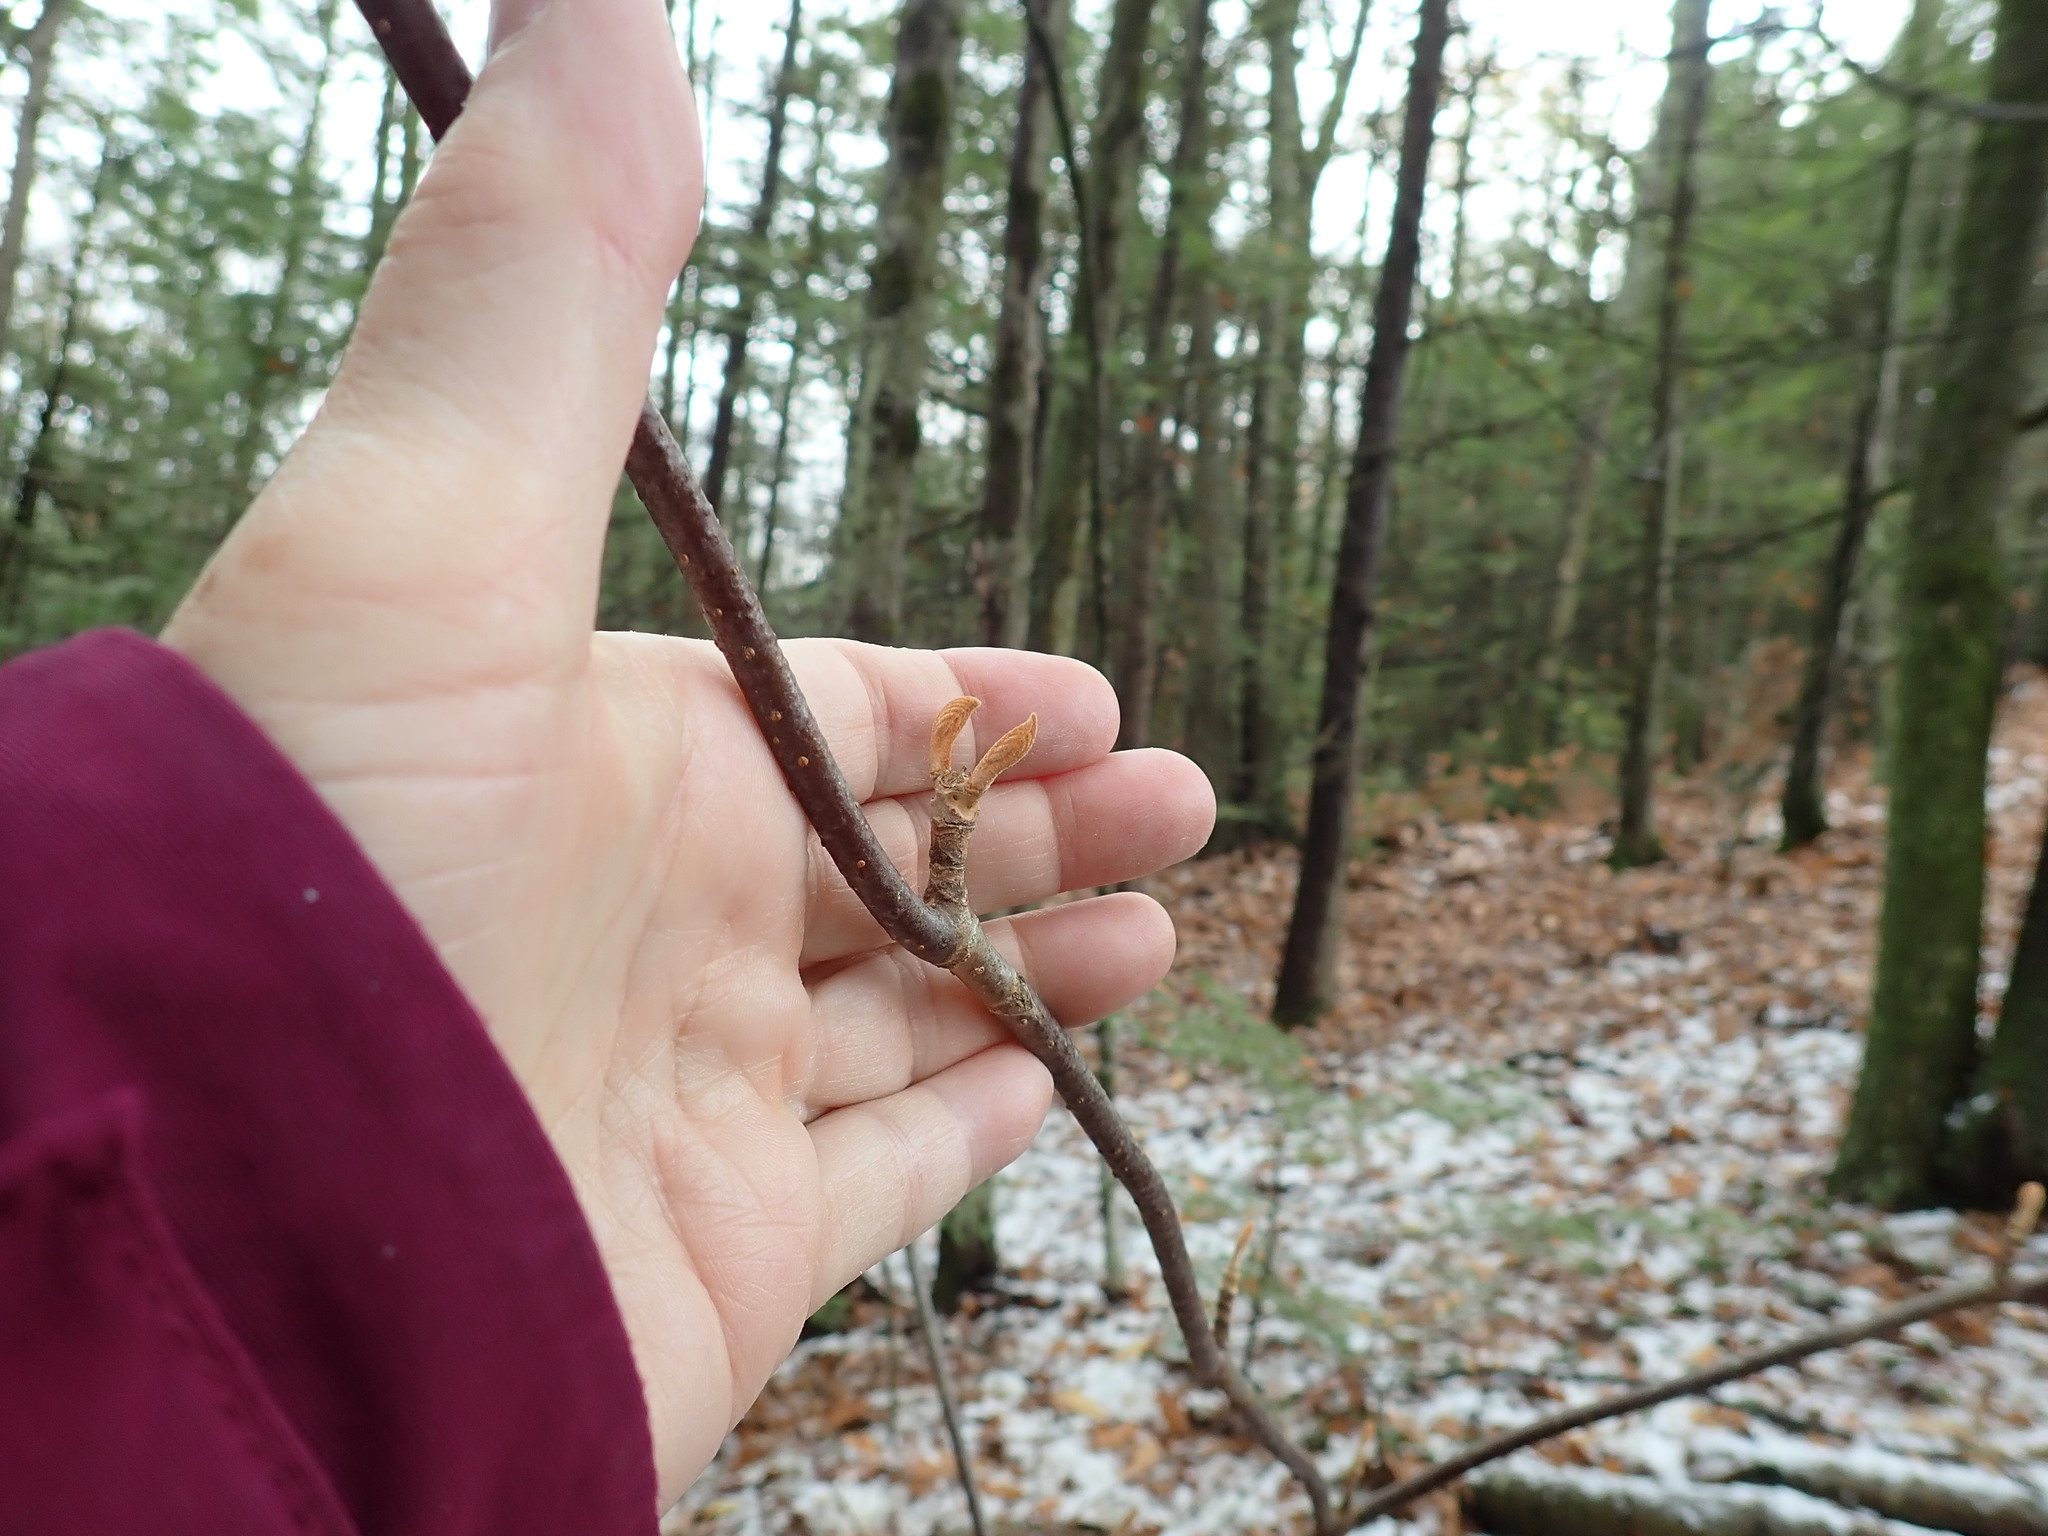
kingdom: Plantae
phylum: Tracheophyta
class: Magnoliopsida
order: Dipsacales
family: Viburnaceae
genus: Viburnum
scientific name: Viburnum lantanoides
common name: Hobblebush
